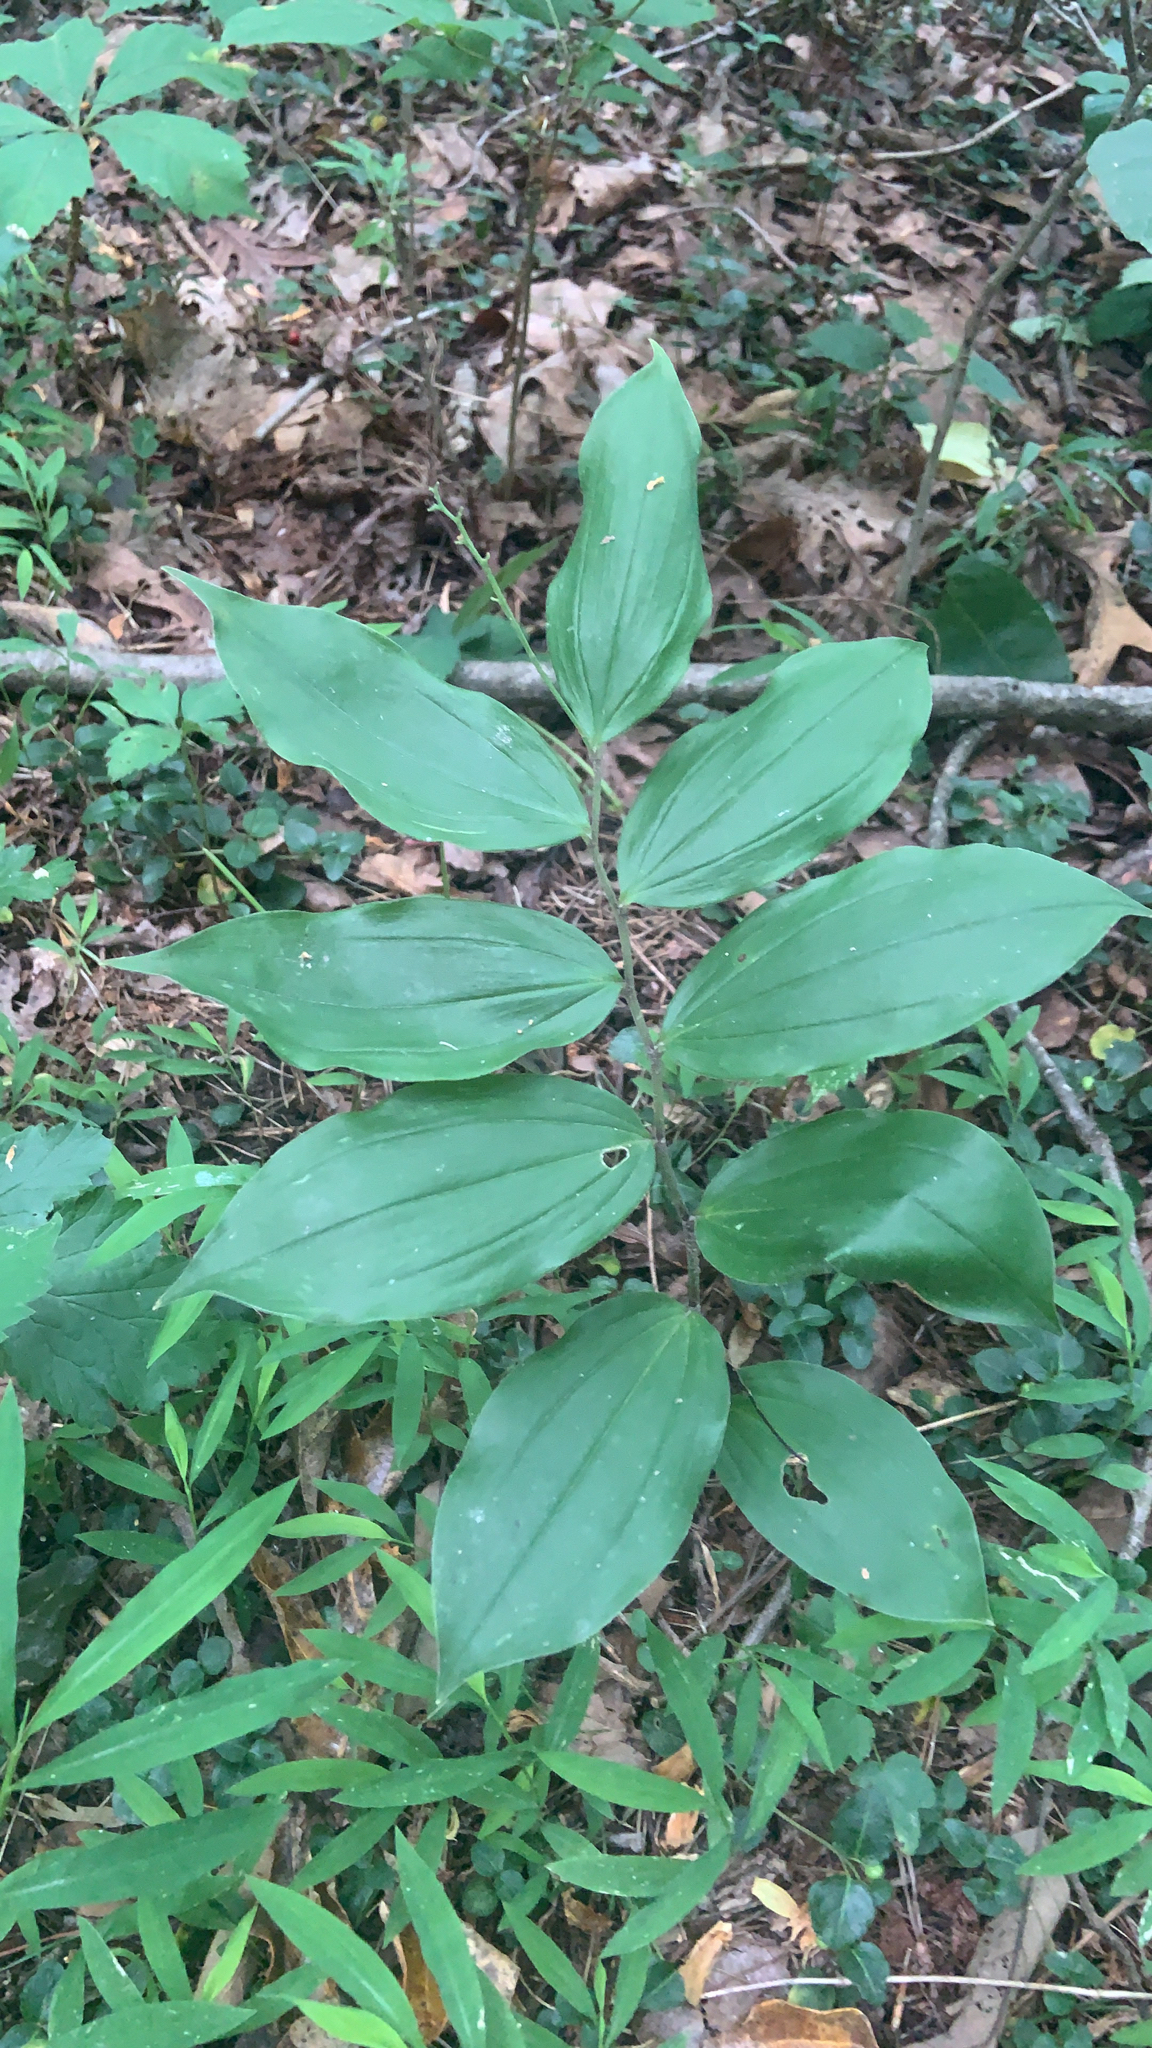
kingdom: Plantae
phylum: Tracheophyta
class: Liliopsida
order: Asparagales
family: Asparagaceae
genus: Maianthemum
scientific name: Maianthemum racemosum
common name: False spikenard
